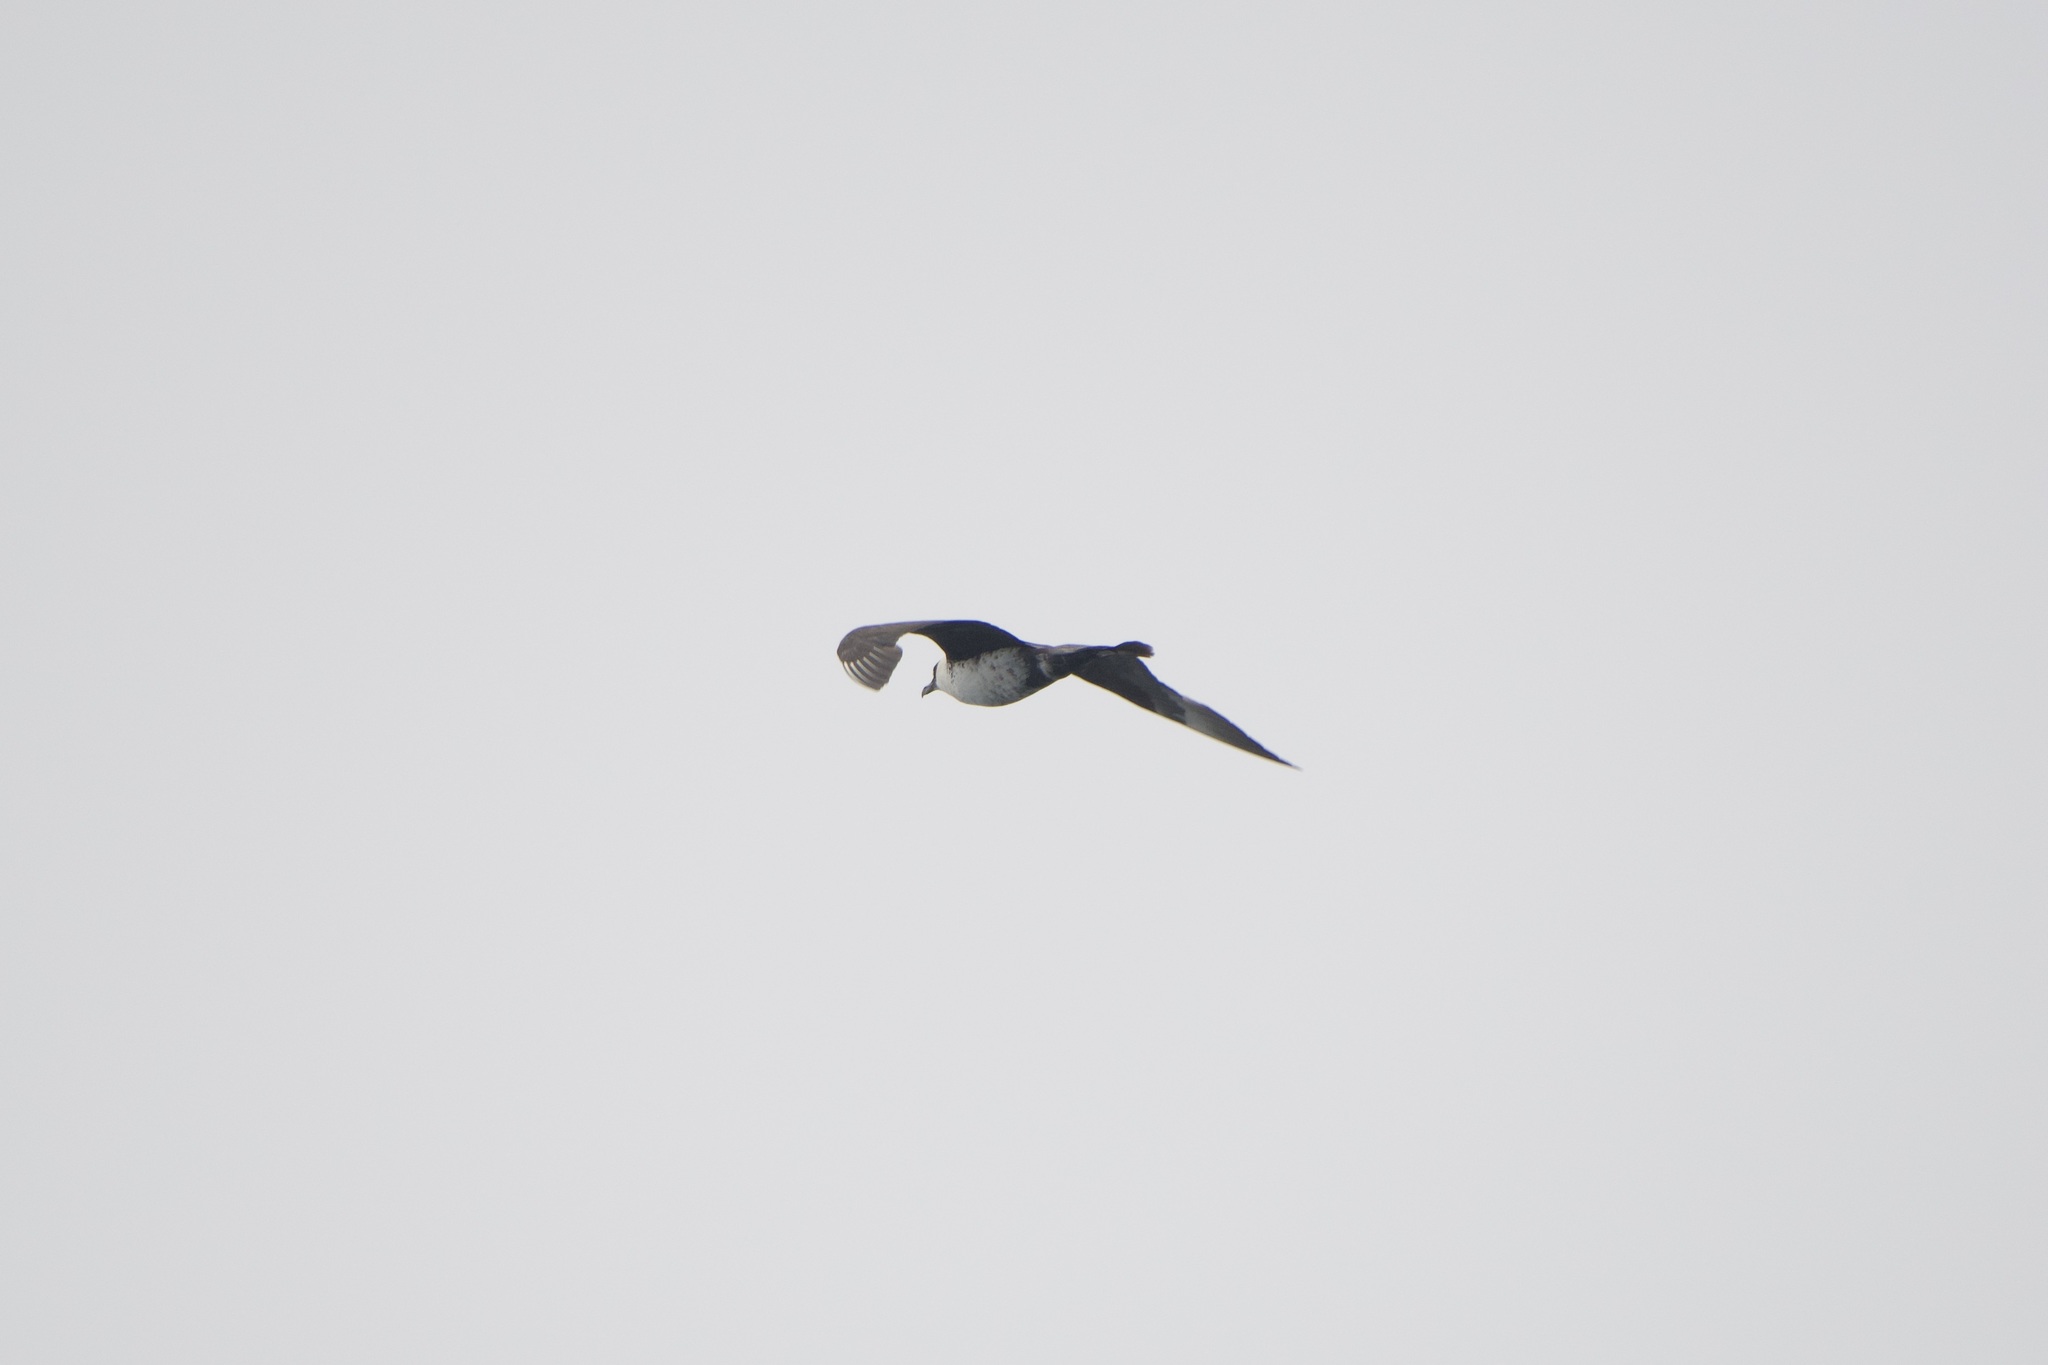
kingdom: Animalia
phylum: Chordata
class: Aves
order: Charadriiformes
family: Stercorariidae
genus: Stercorarius
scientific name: Stercorarius pomarinus
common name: Pomarine jaeger
